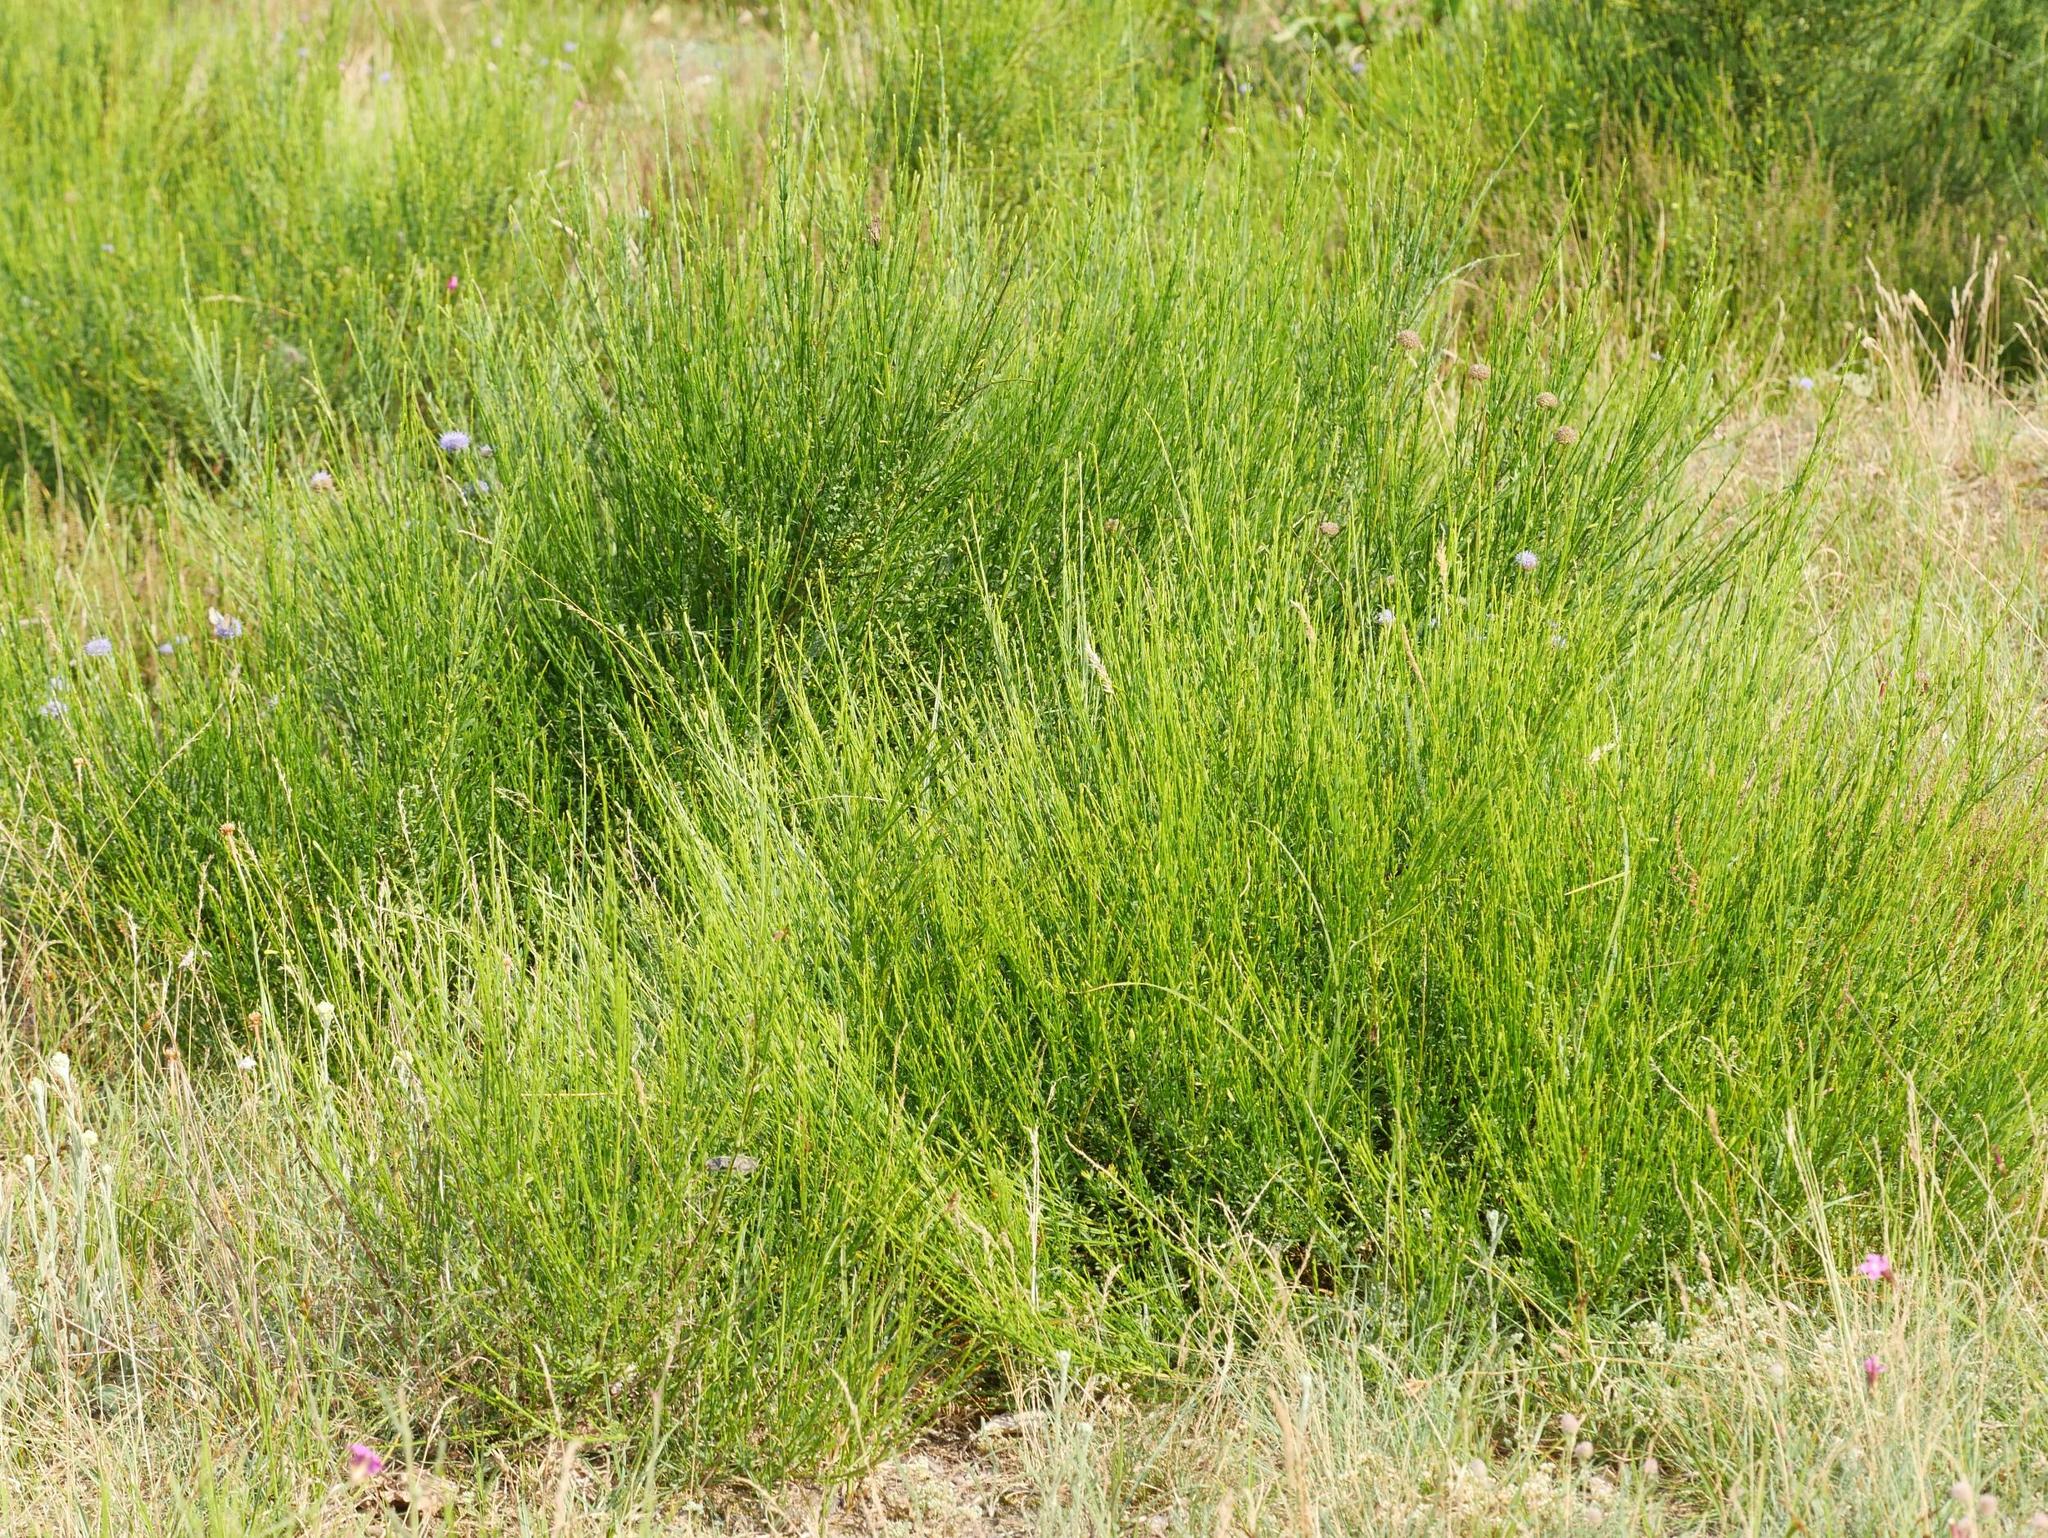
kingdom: Plantae
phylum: Tracheophyta
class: Magnoliopsida
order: Fabales
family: Fabaceae
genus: Cytisus
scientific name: Cytisus scoparius
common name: Scotch broom
